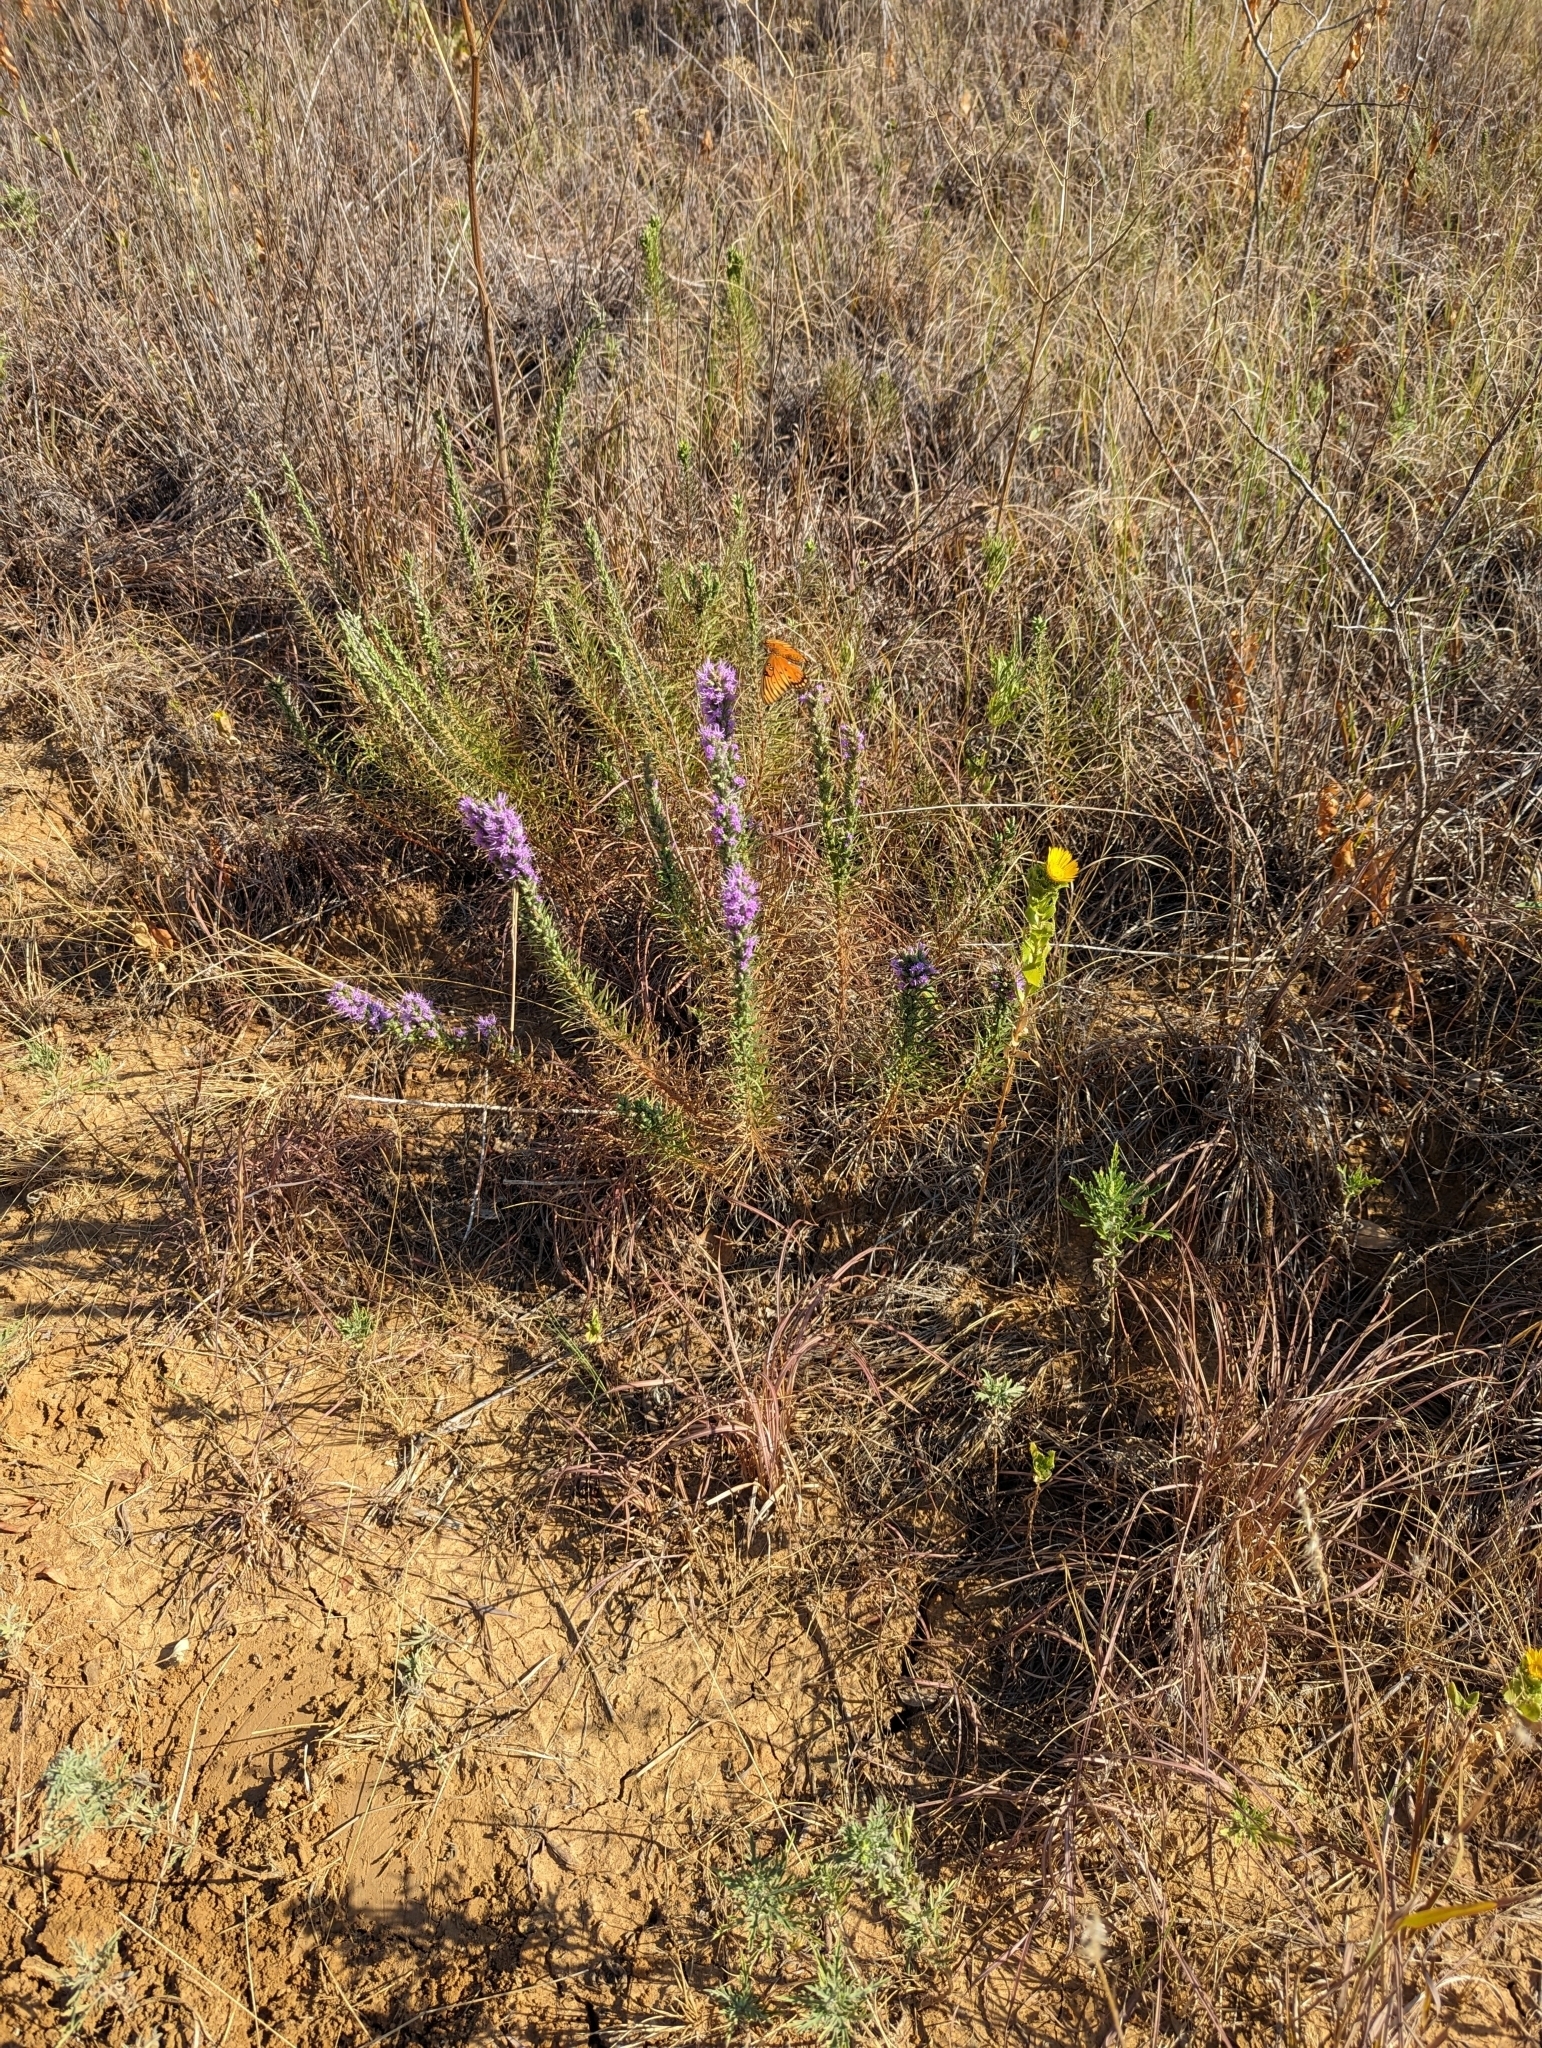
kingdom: Plantae
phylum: Tracheophyta
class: Magnoliopsida
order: Asterales
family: Asteraceae
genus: Liatris
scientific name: Liatris punctata
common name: Dotted gayfeather
